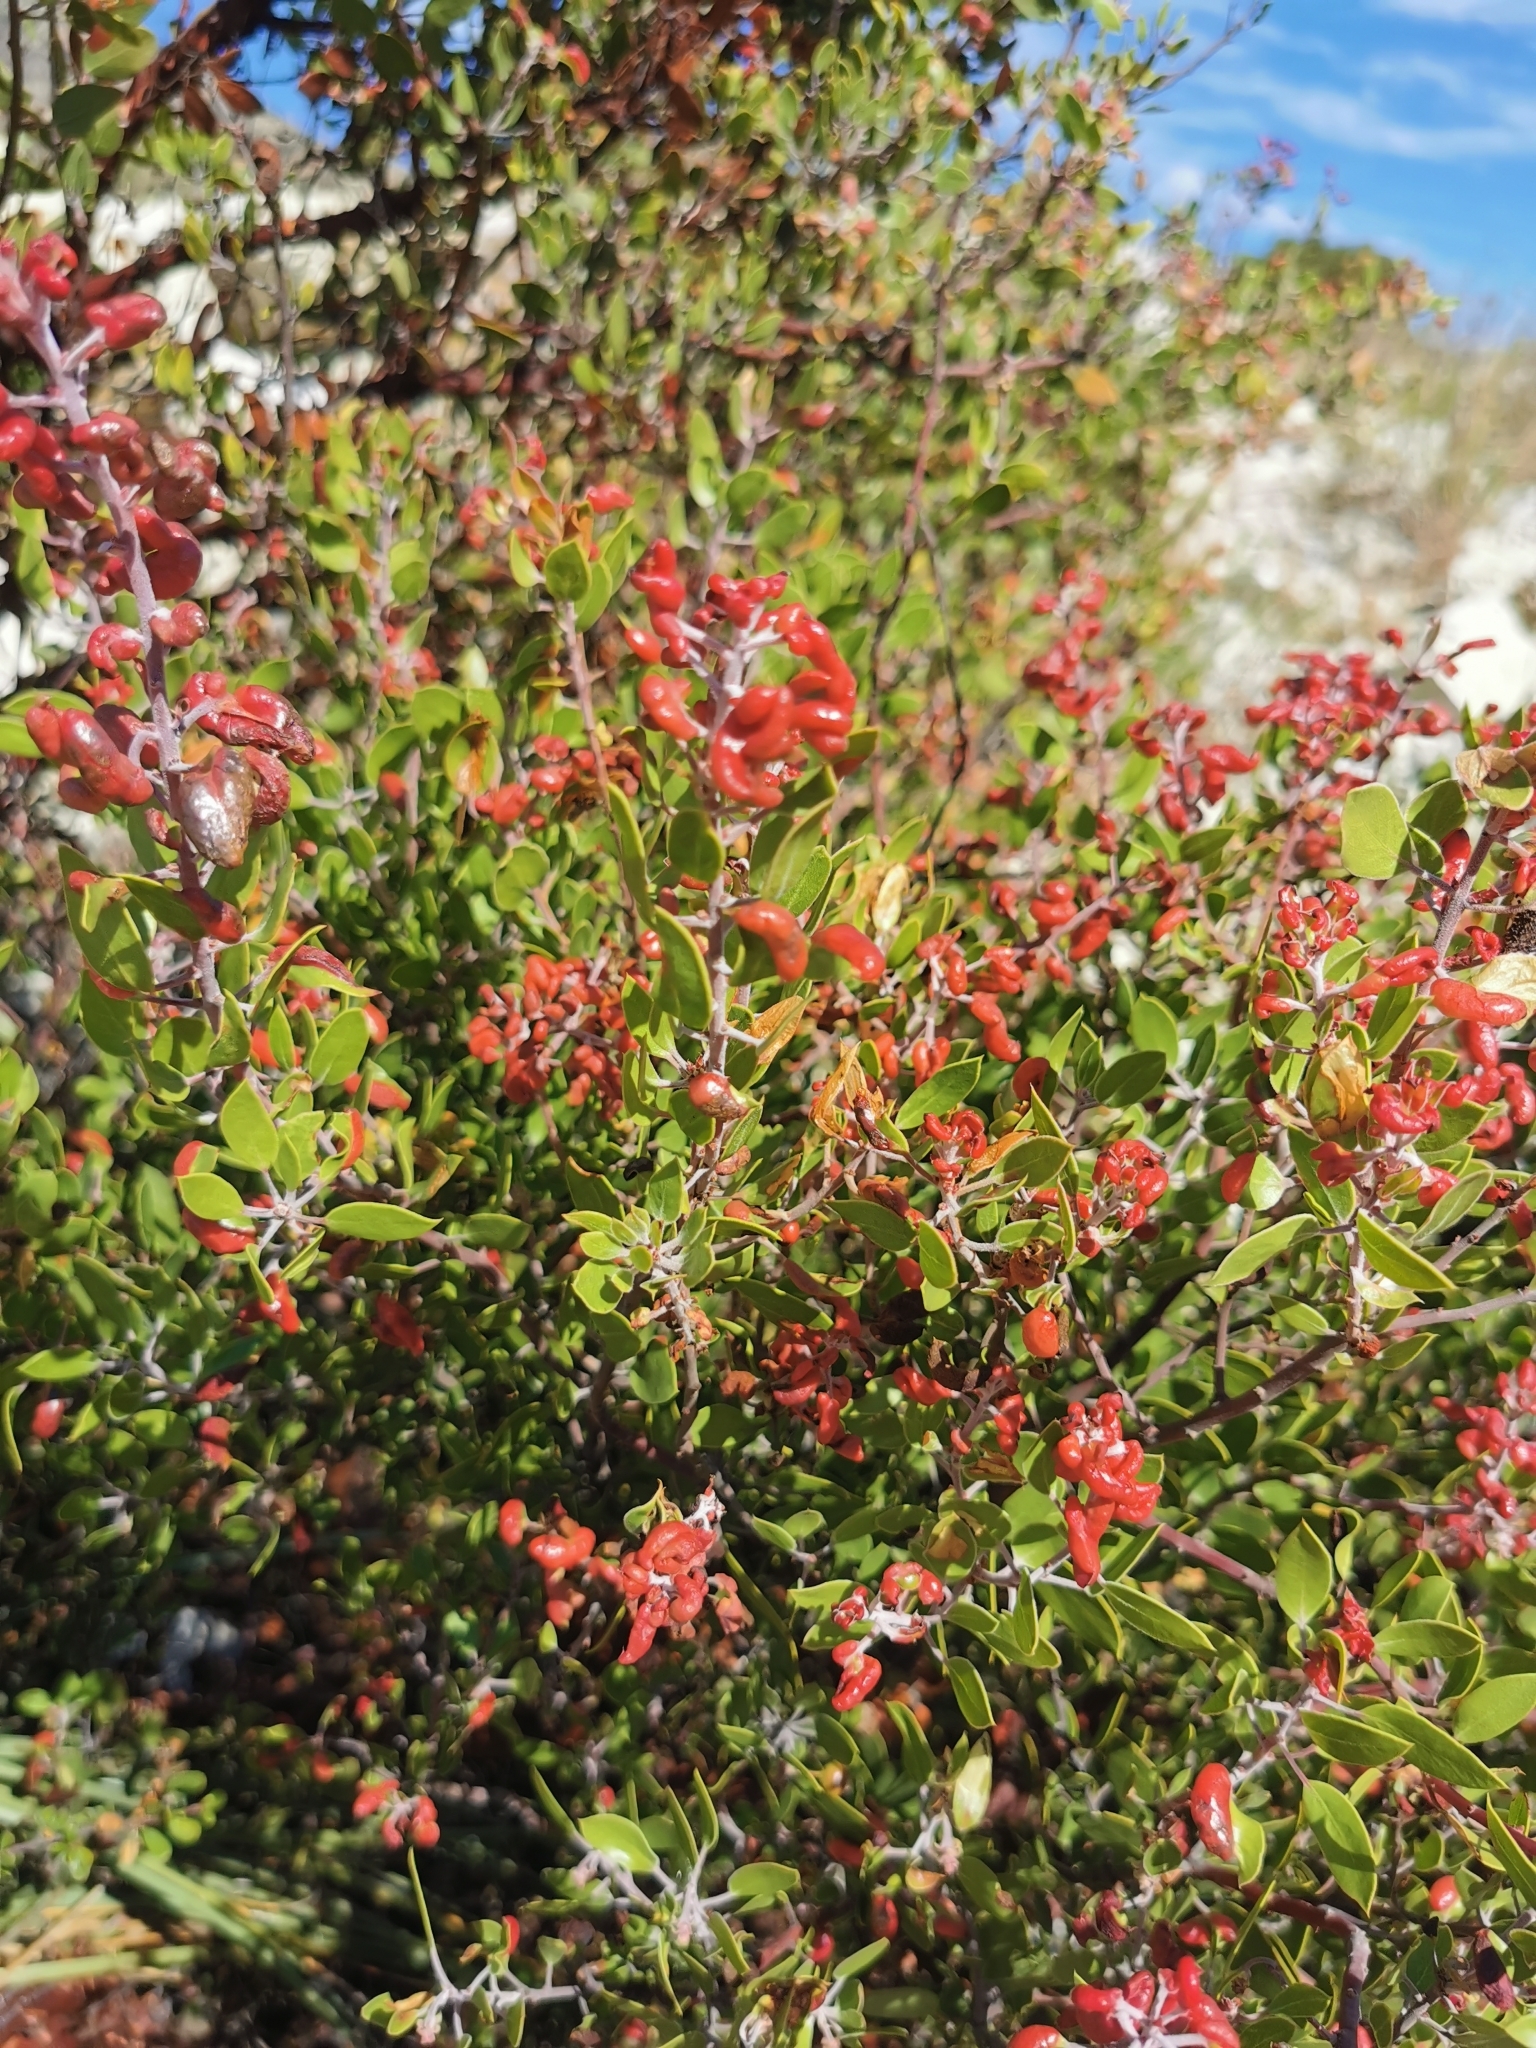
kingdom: Plantae
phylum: Tracheophyta
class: Magnoliopsida
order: Ericales
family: Ericaceae
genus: Arctostaphylos
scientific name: Arctostaphylos pungens
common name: Mexican manzanita
